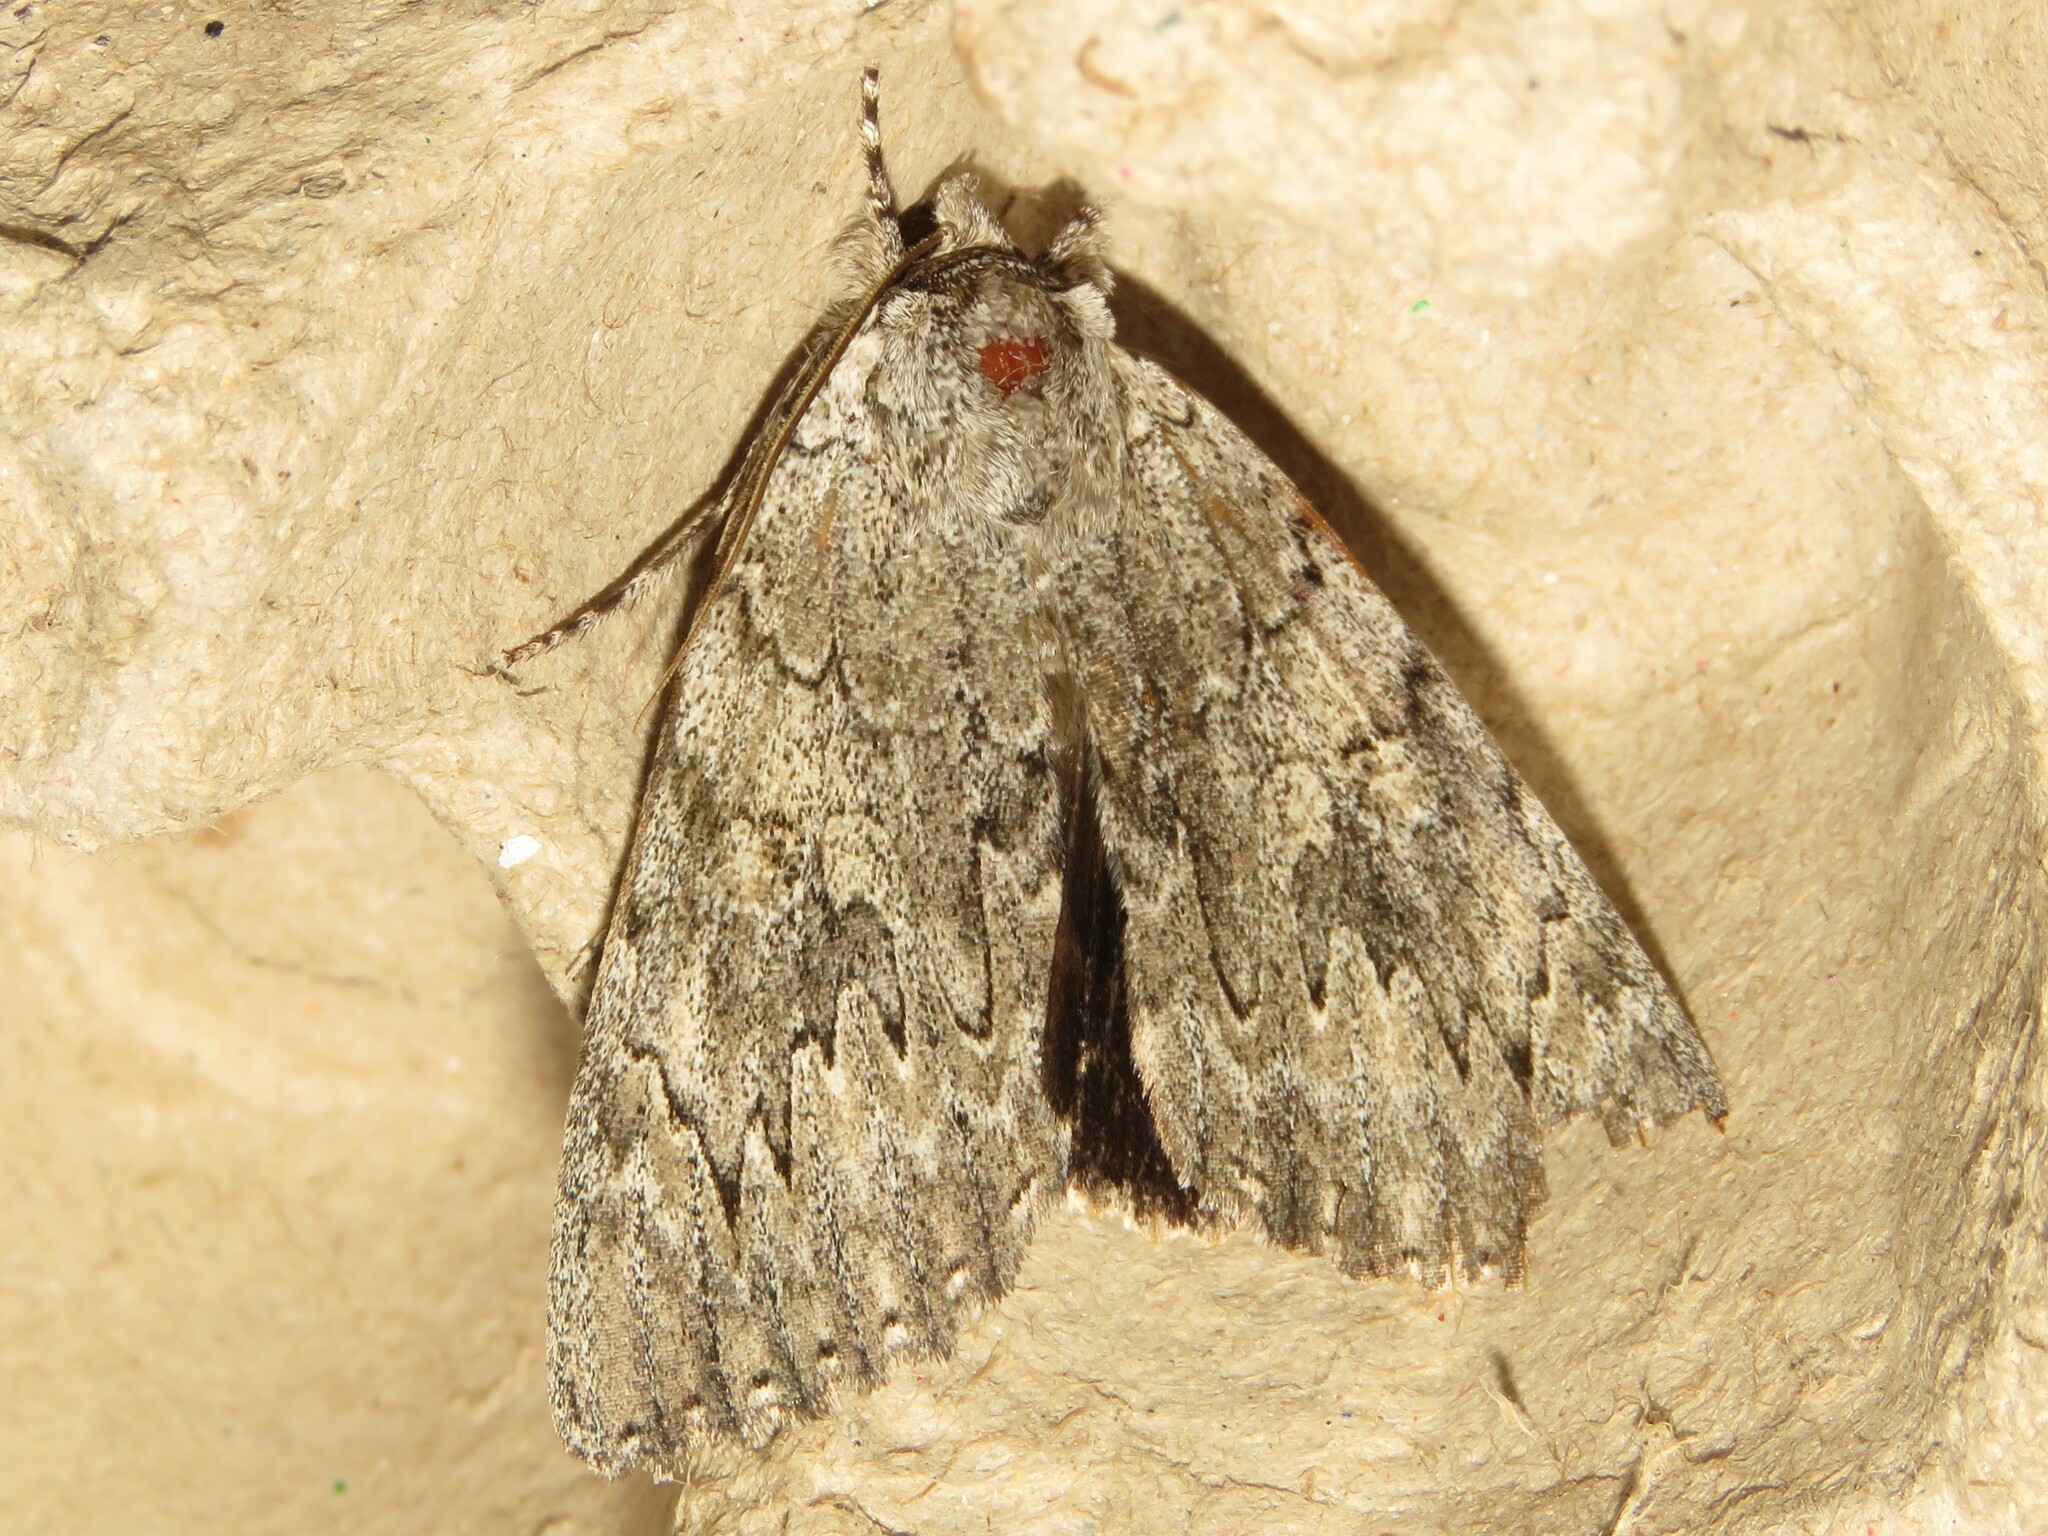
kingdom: Animalia
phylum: Arthropoda
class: Insecta
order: Lepidoptera
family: Erebidae
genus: Catocala
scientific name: Catocala robinsoni
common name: Robinson's underwing
